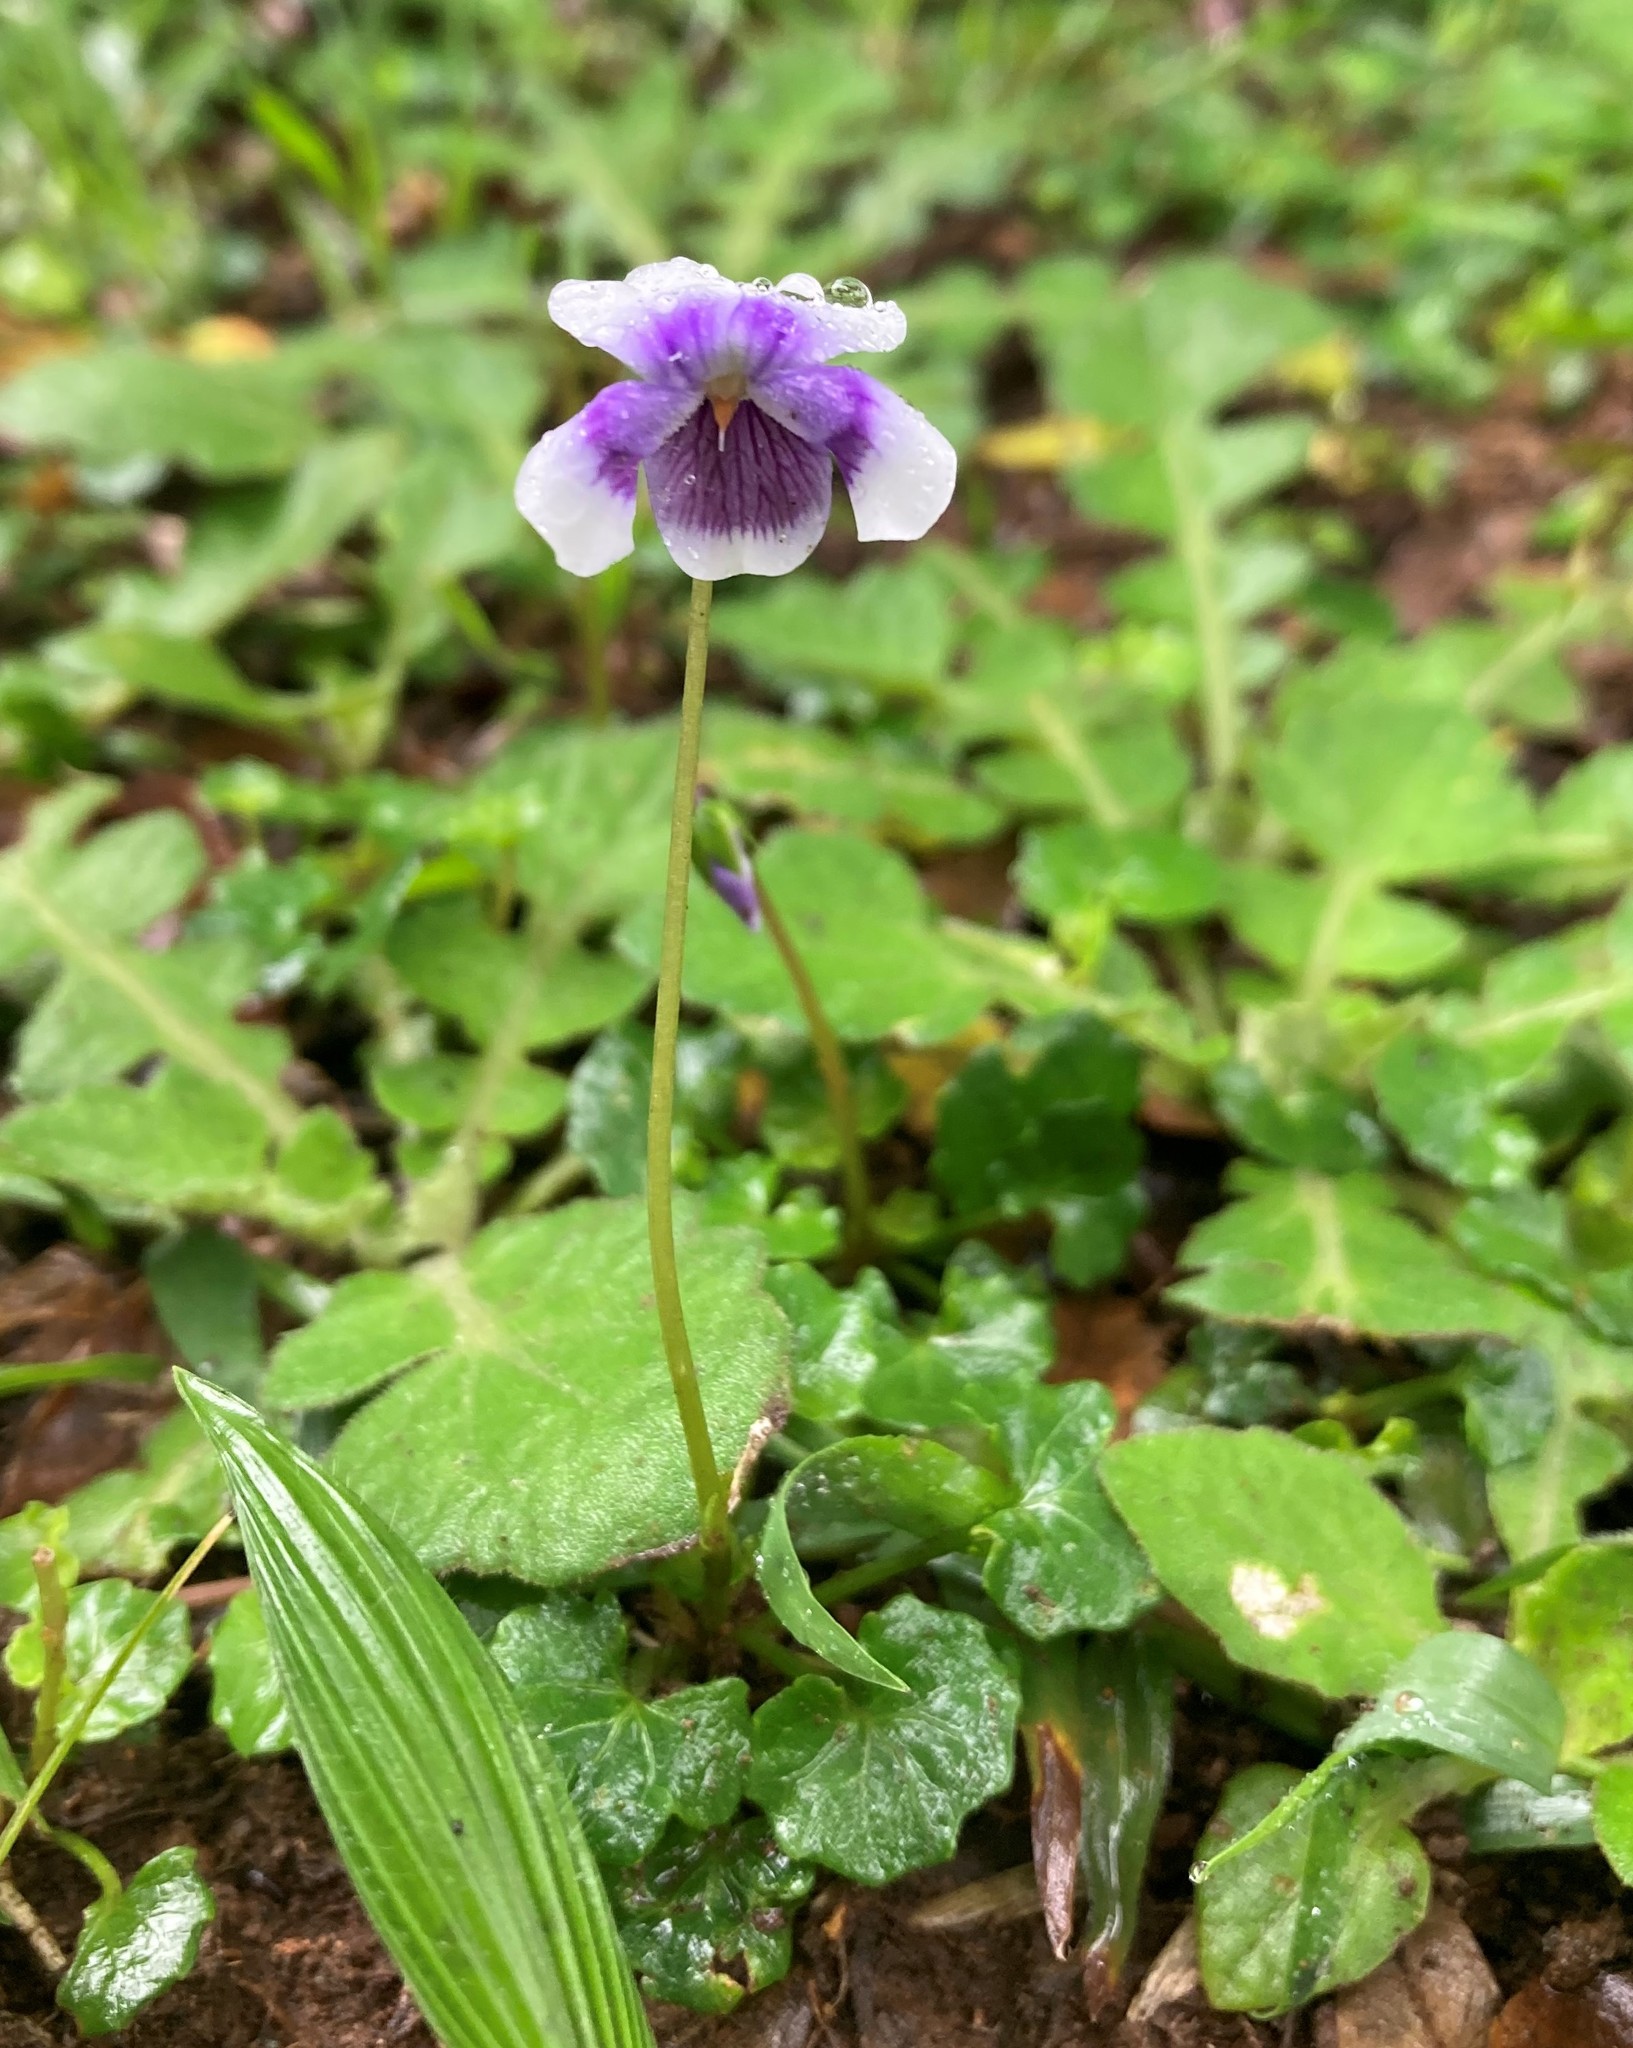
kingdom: Plantae
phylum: Tracheophyta
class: Magnoliopsida
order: Malpighiales
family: Violaceae
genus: Viola
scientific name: Viola banksii
